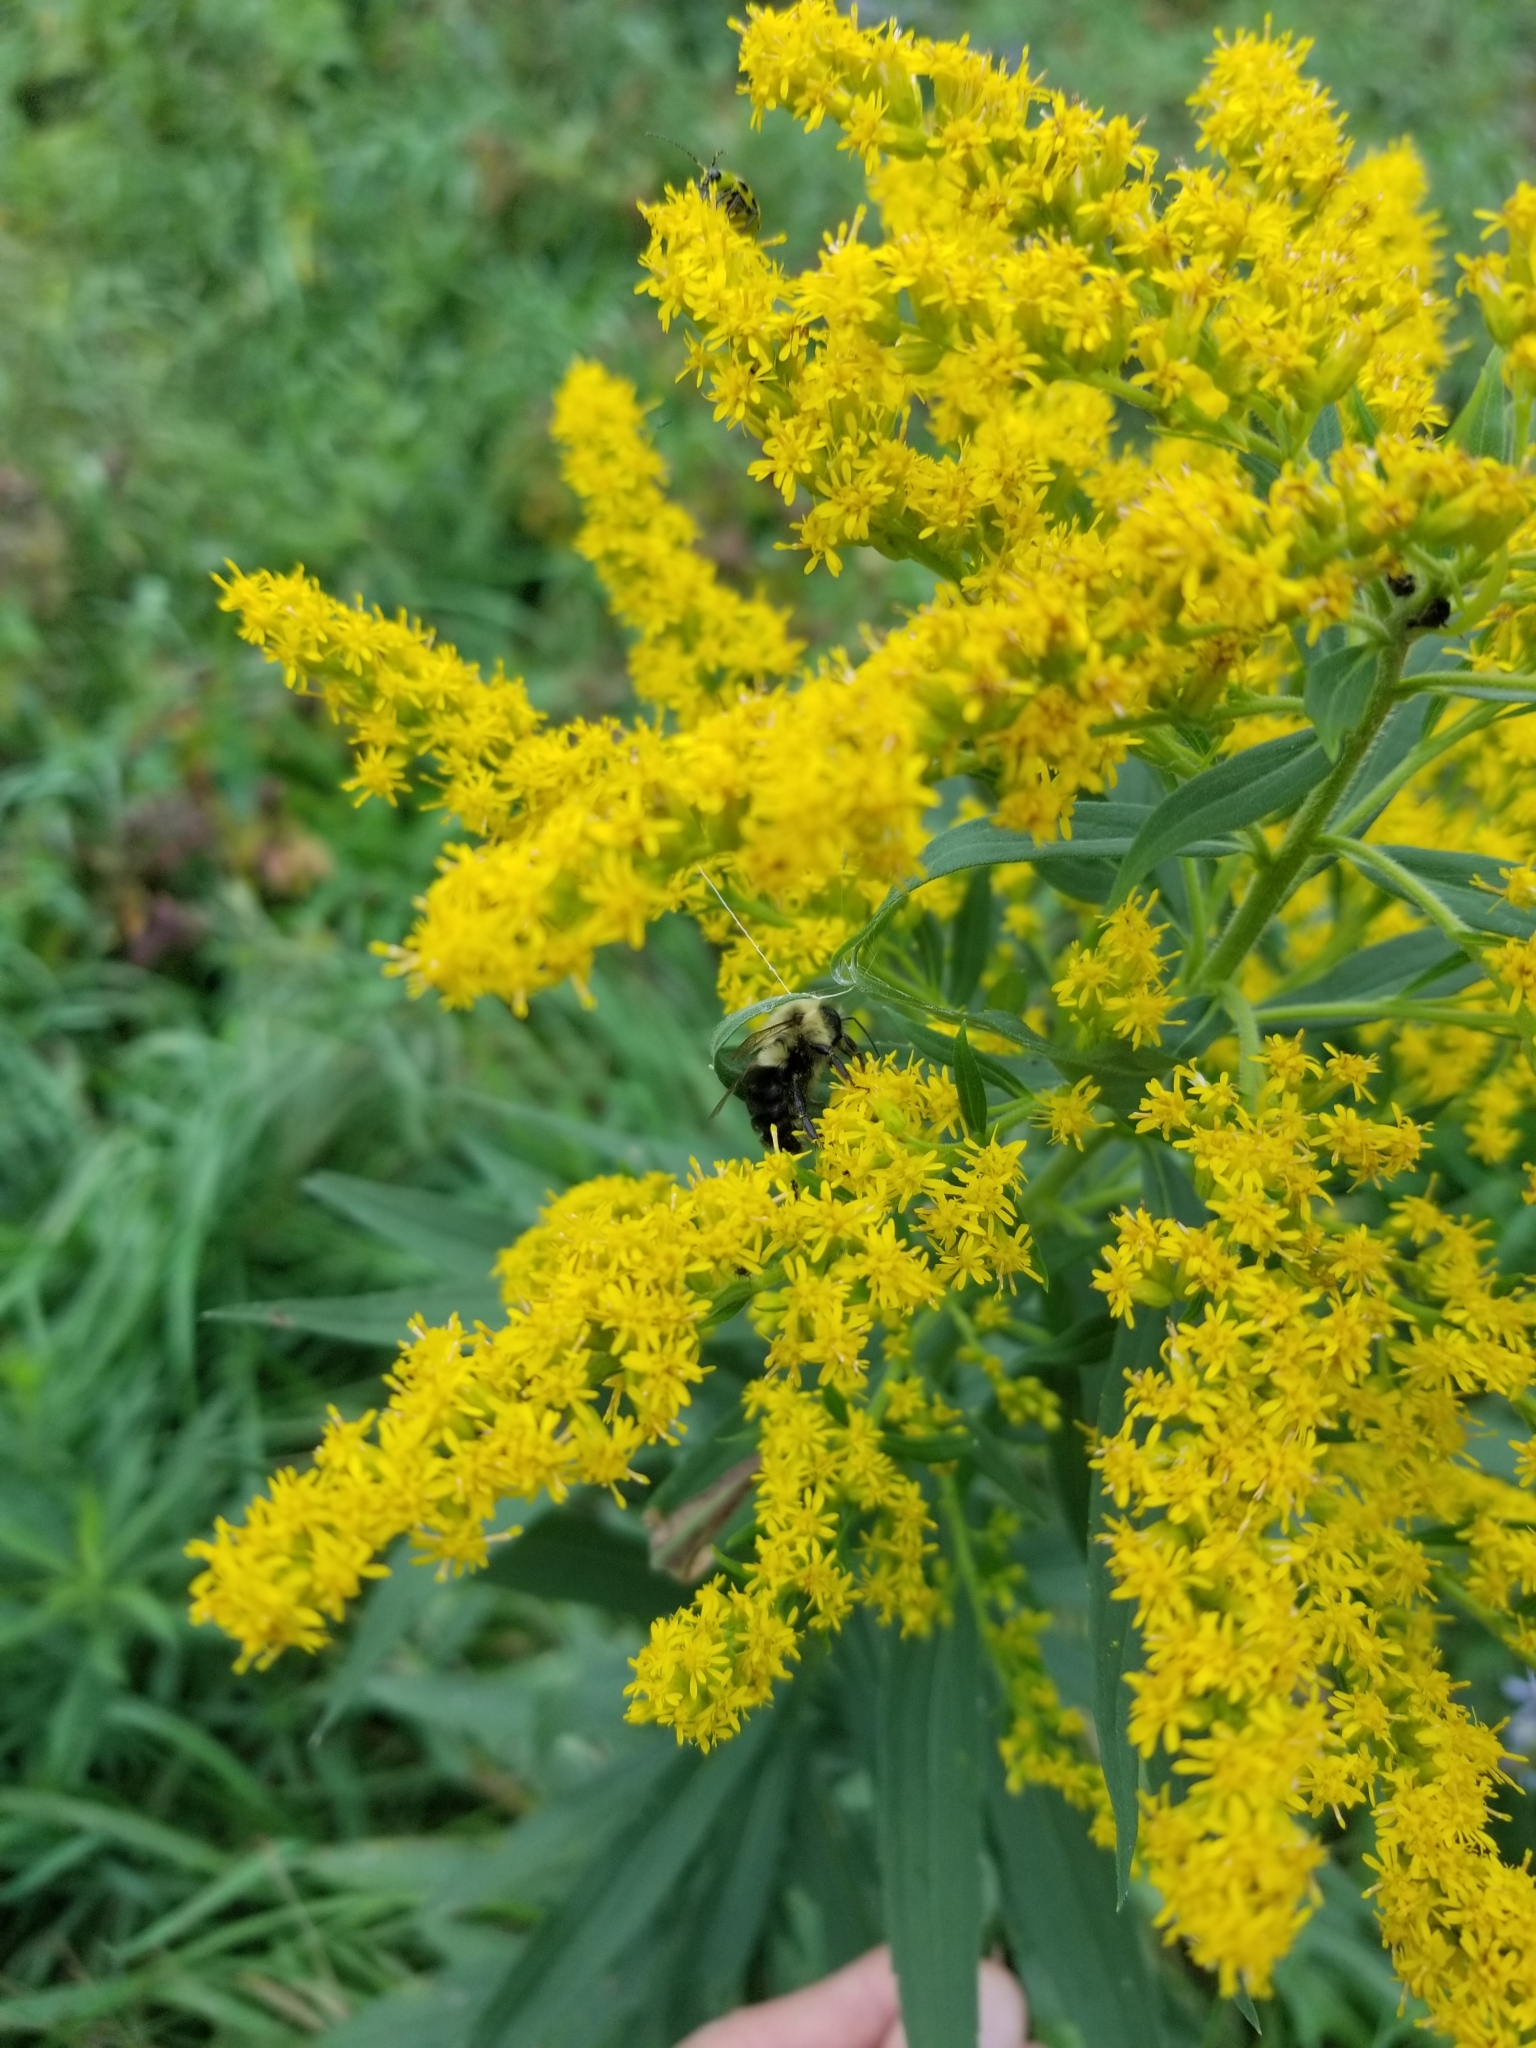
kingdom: Animalia
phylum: Arthropoda
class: Insecta
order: Hymenoptera
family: Apidae
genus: Bombus
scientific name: Bombus impatiens
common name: Common eastern bumble bee
